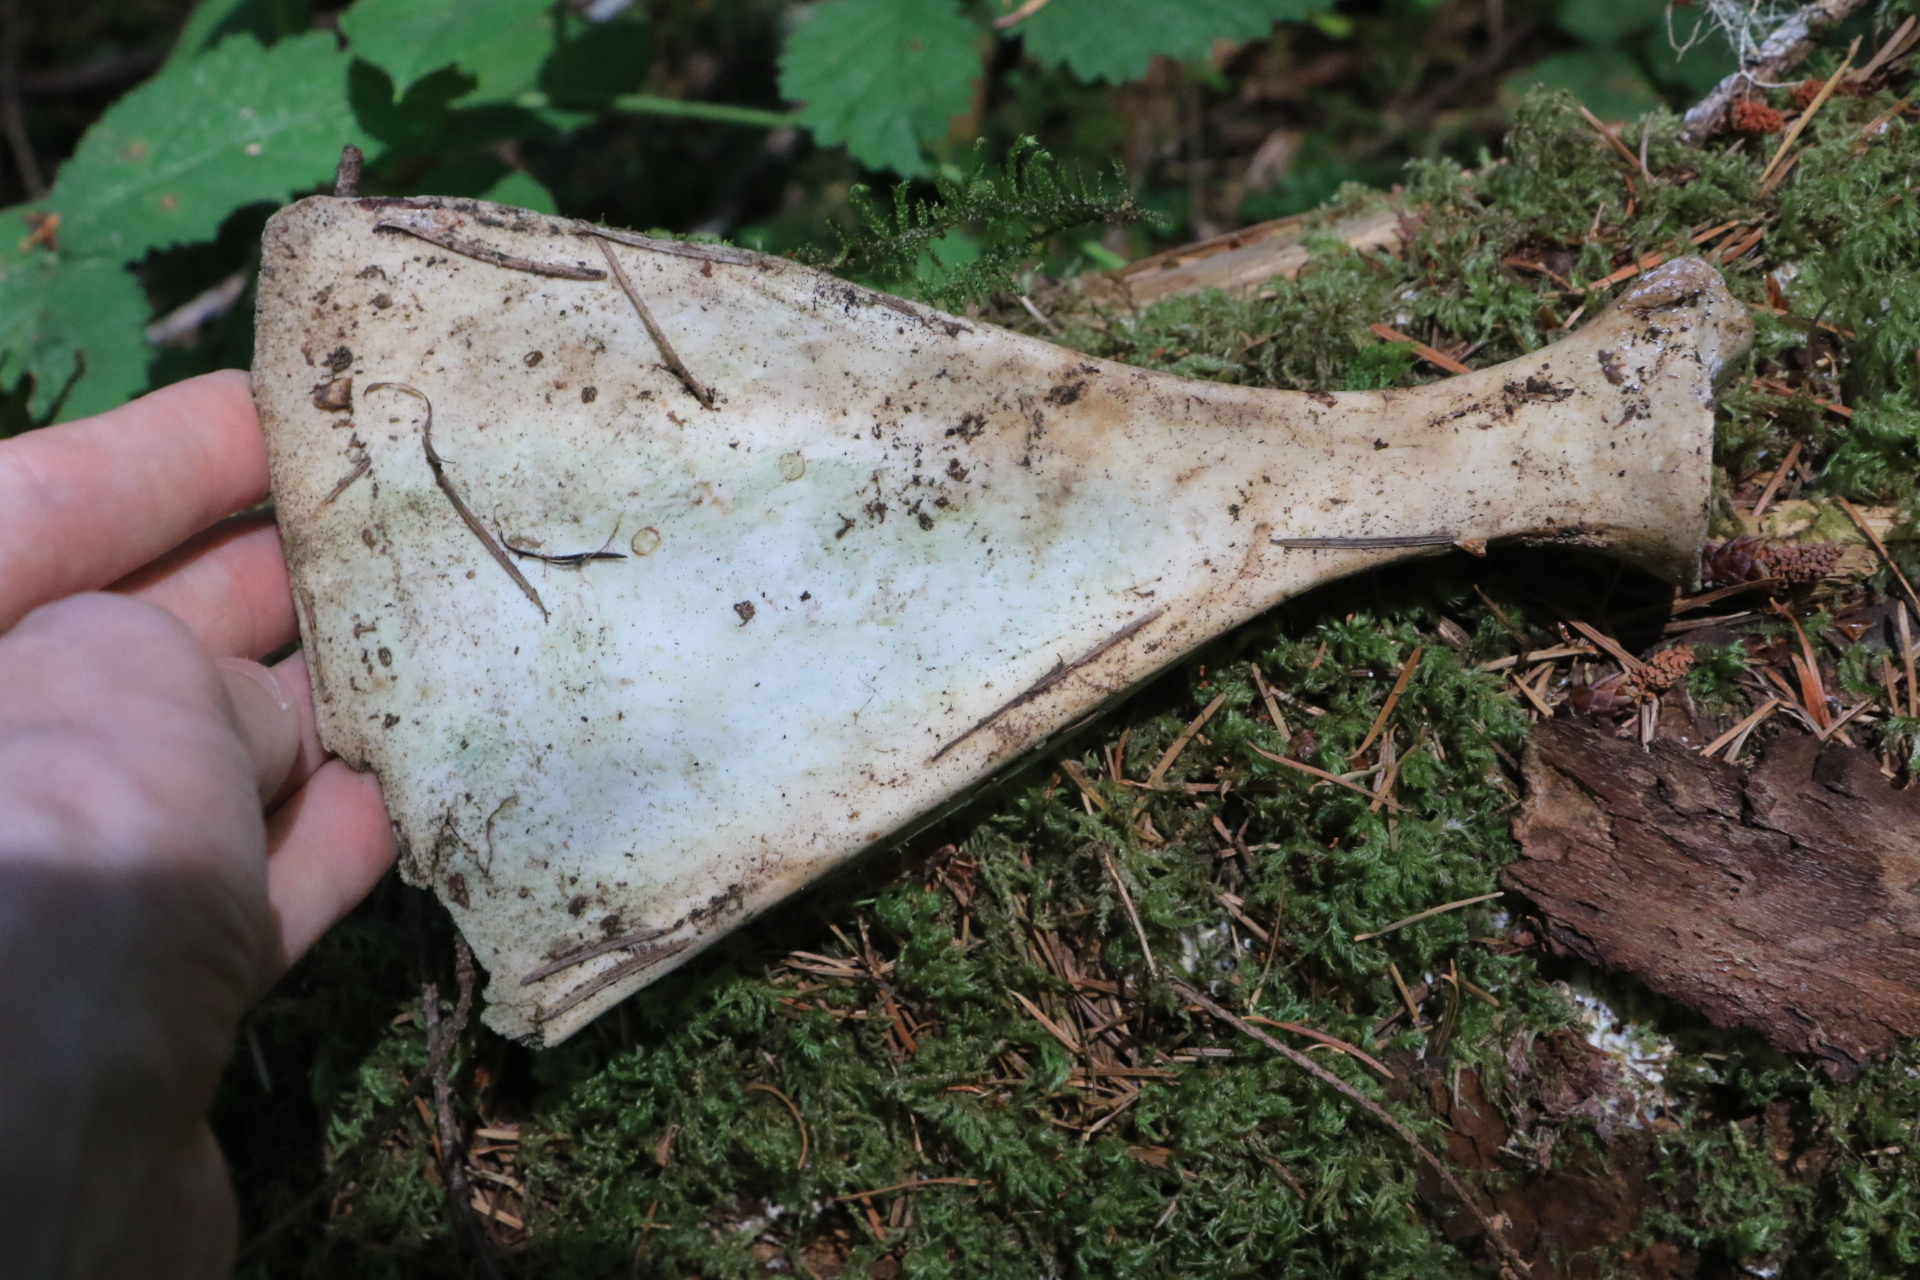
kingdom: Animalia
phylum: Chordata
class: Mammalia
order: Artiodactyla
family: Cervidae
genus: Odocoileus
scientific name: Odocoileus hemionus
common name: Mule deer
